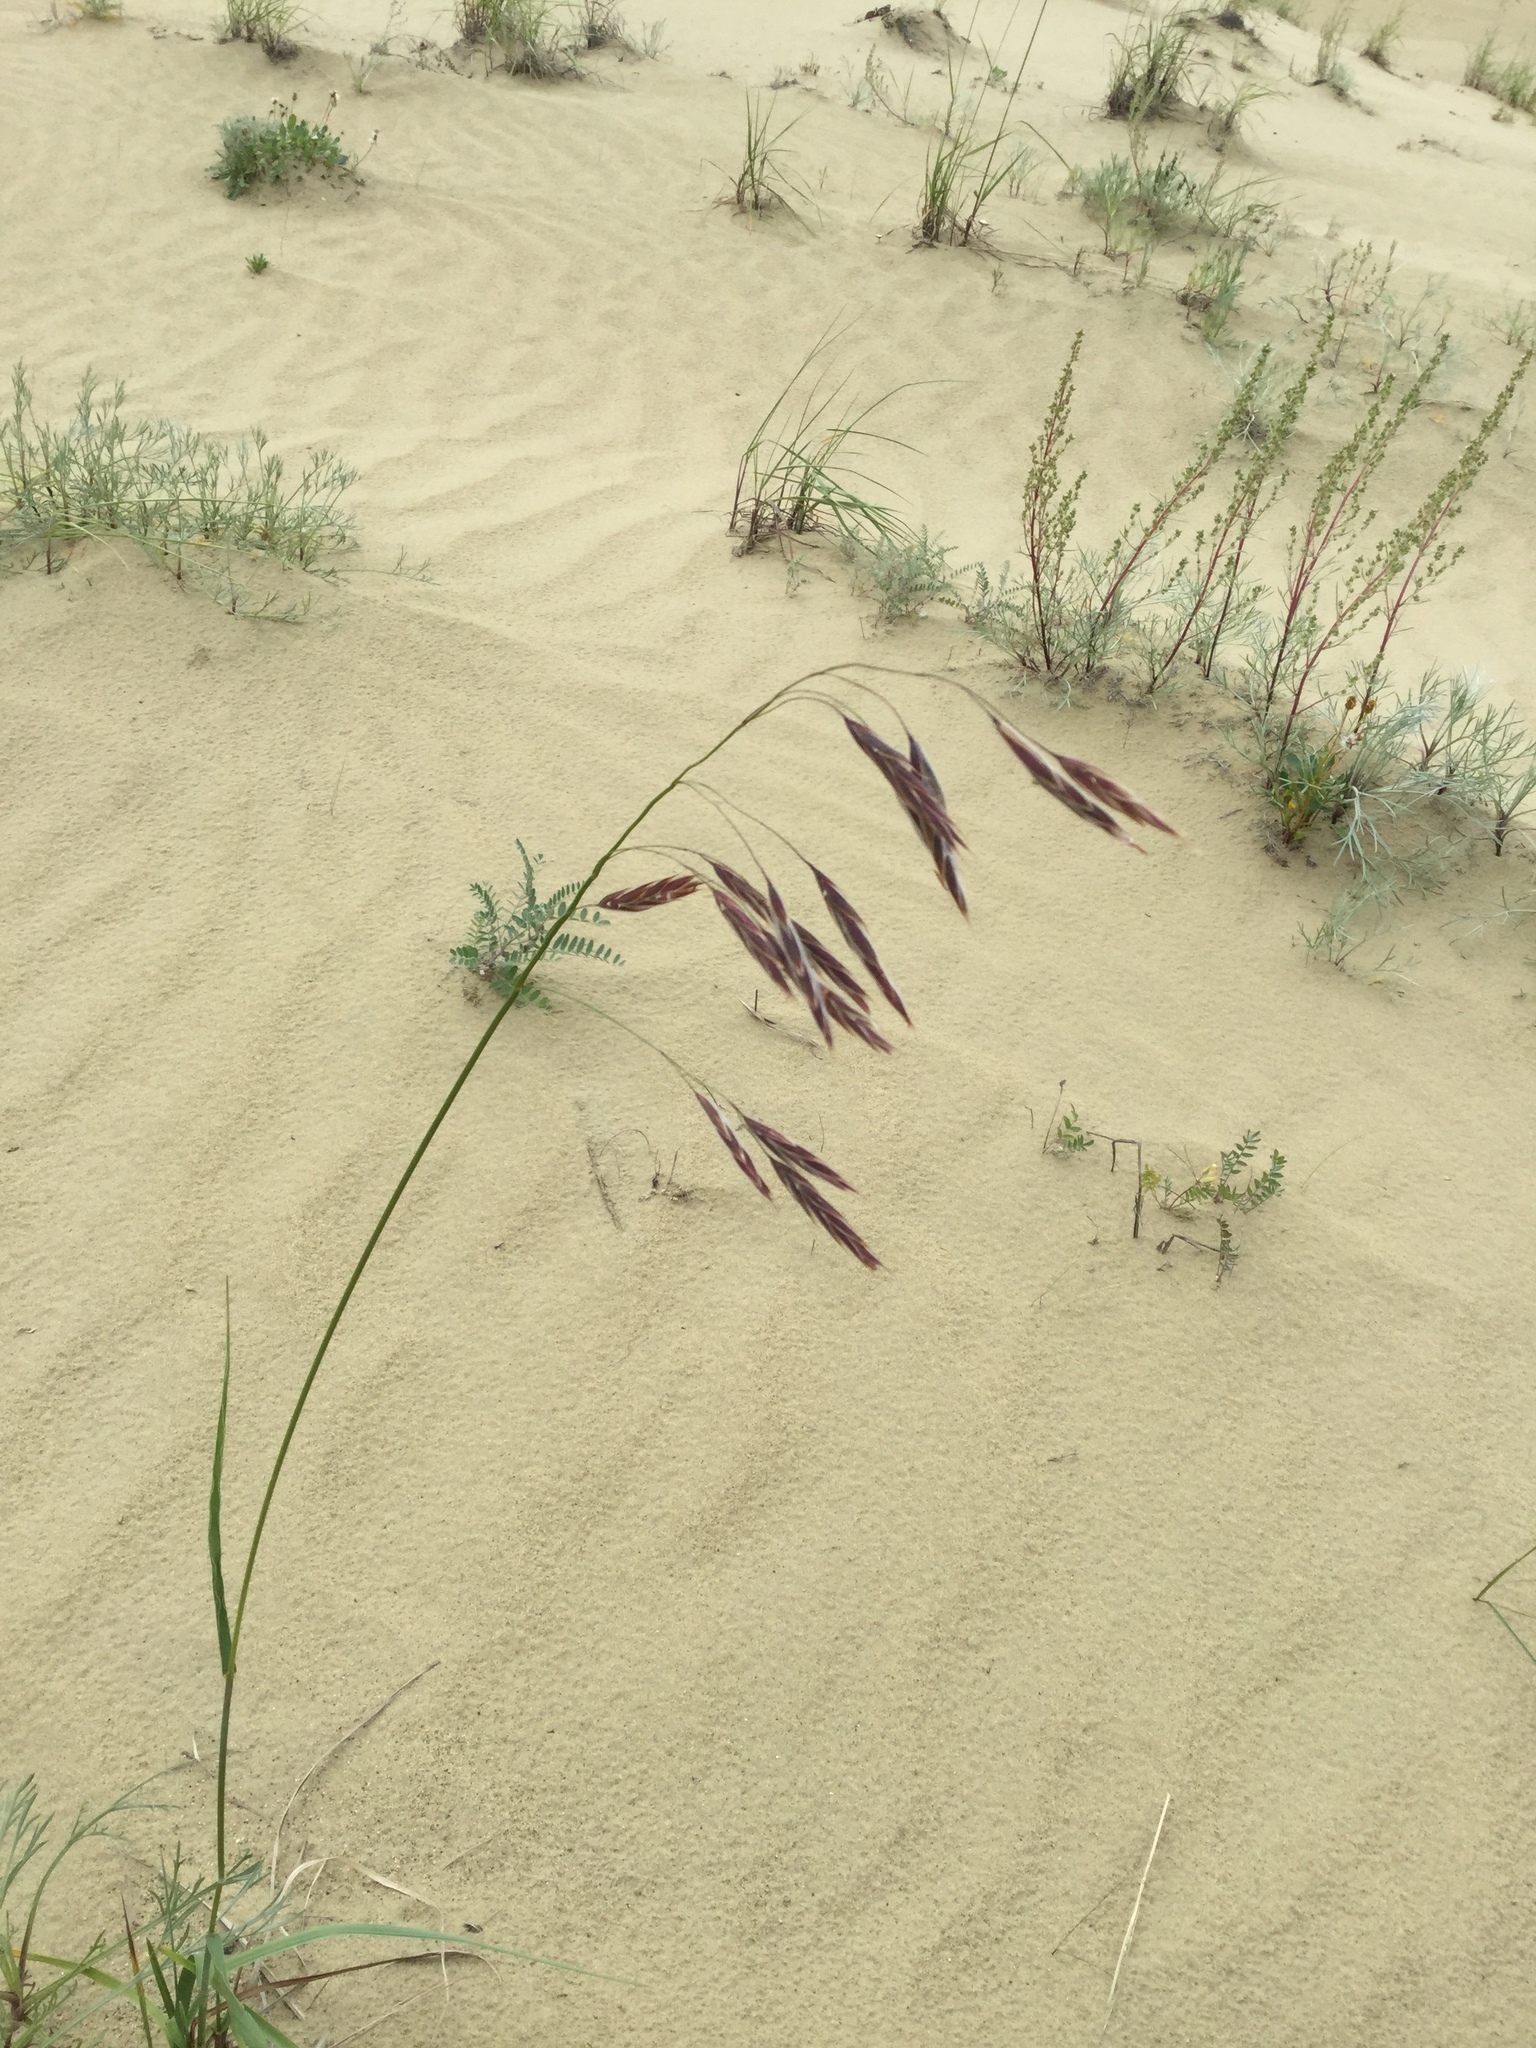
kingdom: Plantae
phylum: Tracheophyta
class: Liliopsida
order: Poales
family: Poaceae
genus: Bromus
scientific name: Bromus pumpellianus
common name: Pumpelly's brome
